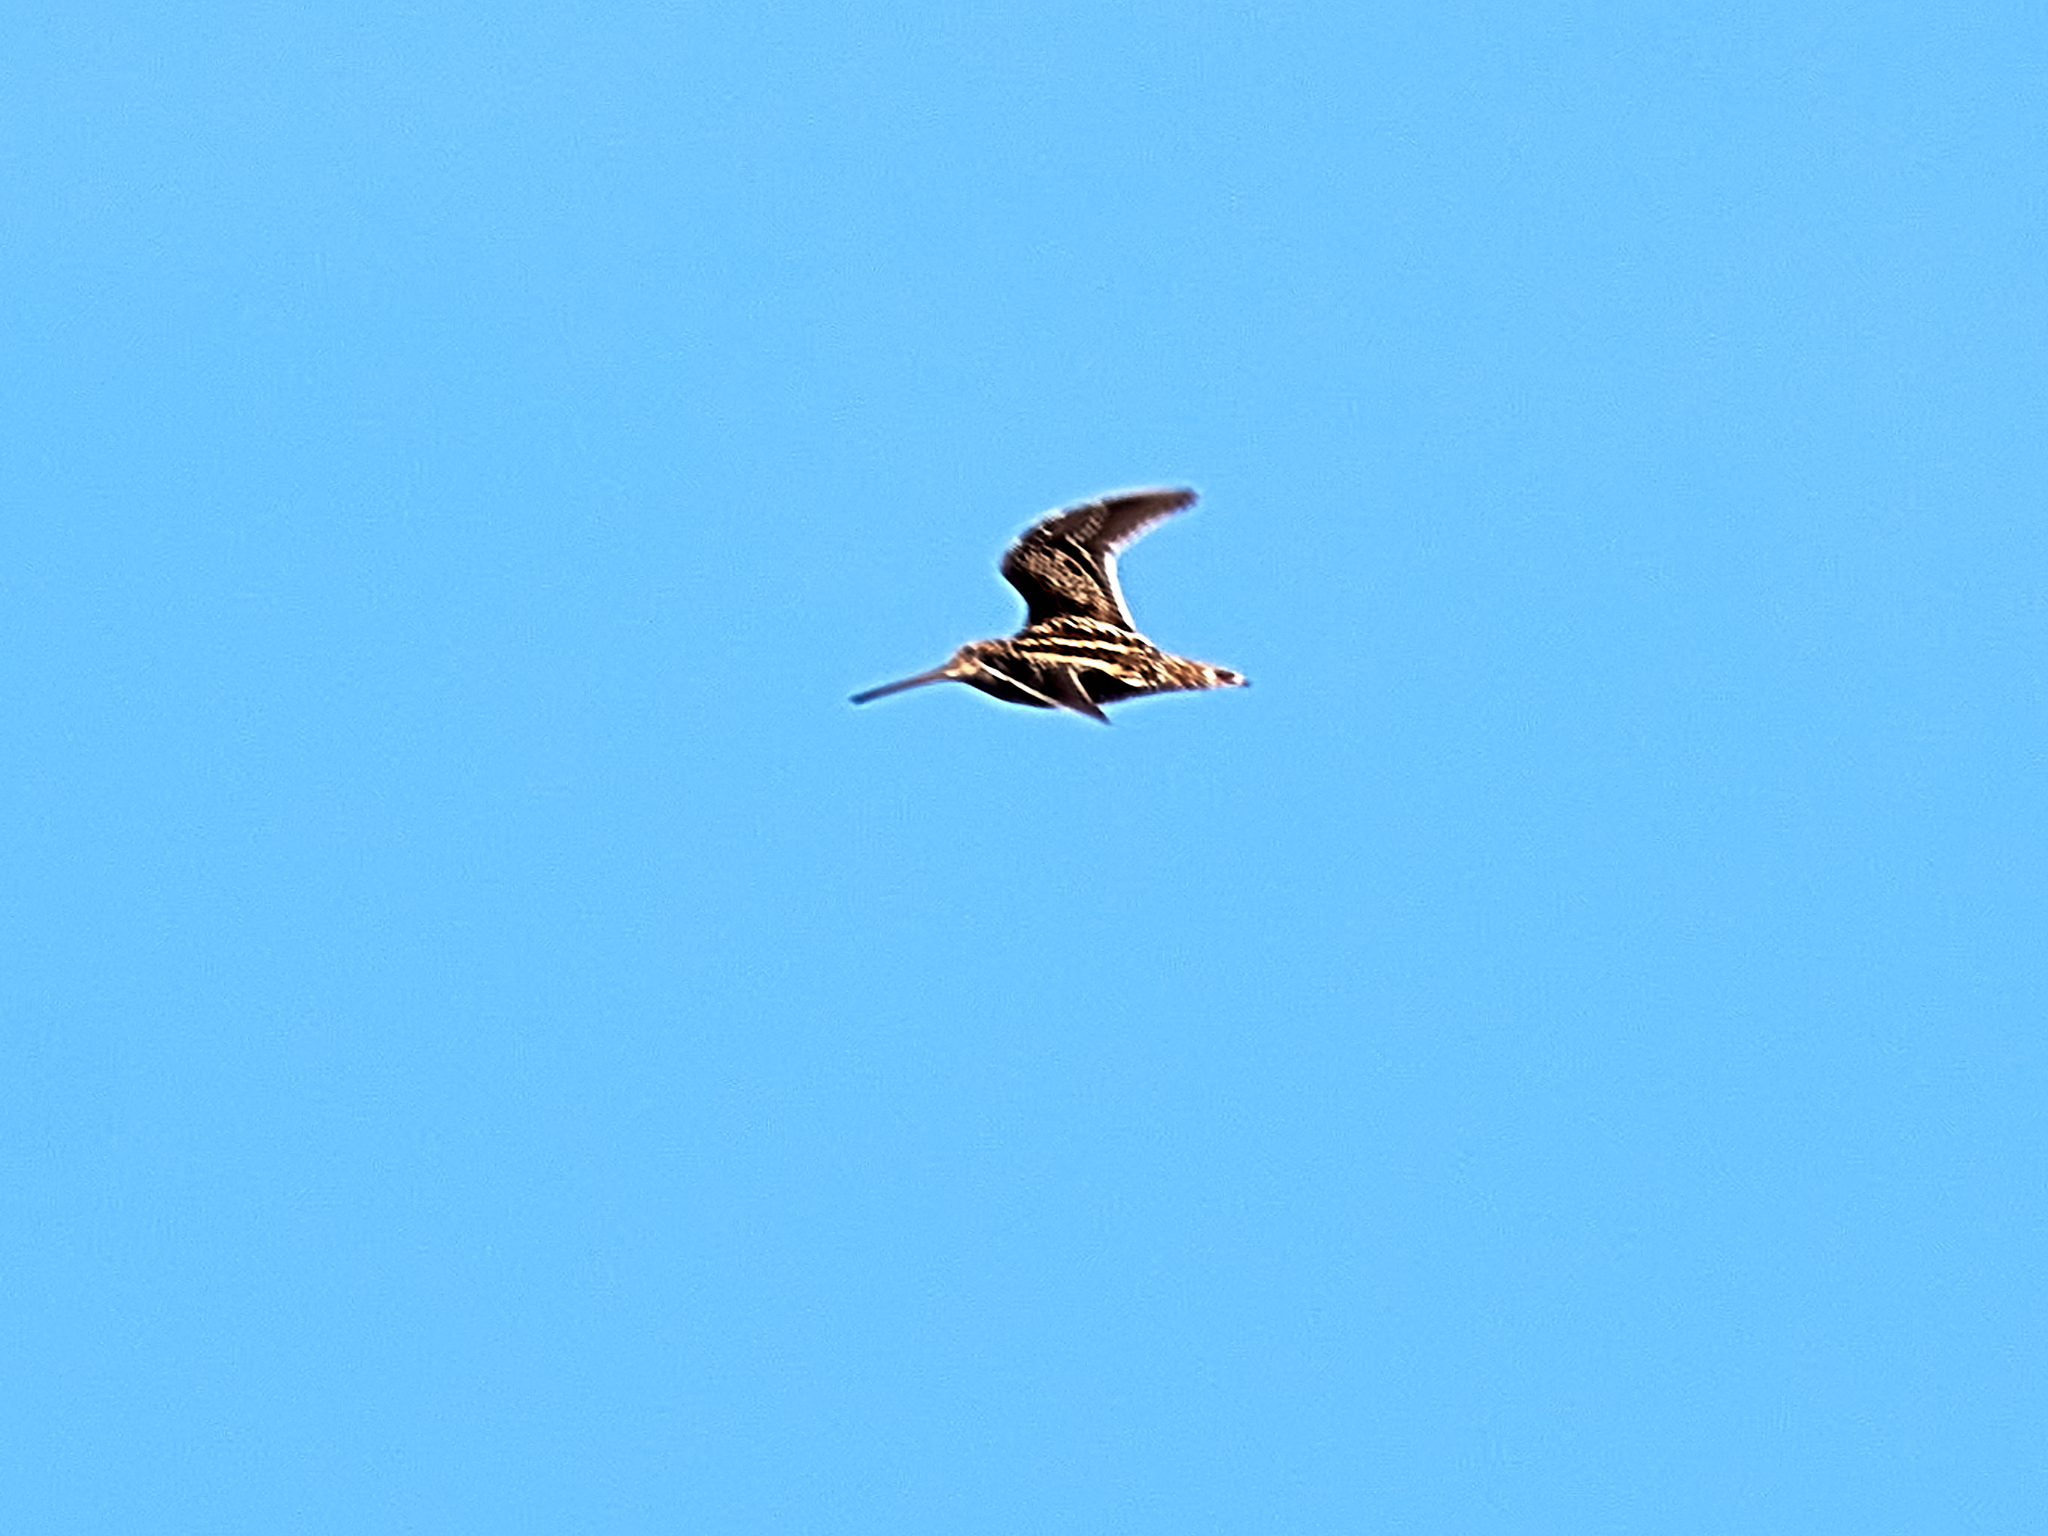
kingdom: Animalia
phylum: Chordata
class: Aves
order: Charadriiformes
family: Scolopacidae
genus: Gallinago
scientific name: Gallinago gallinago
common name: Common snipe
